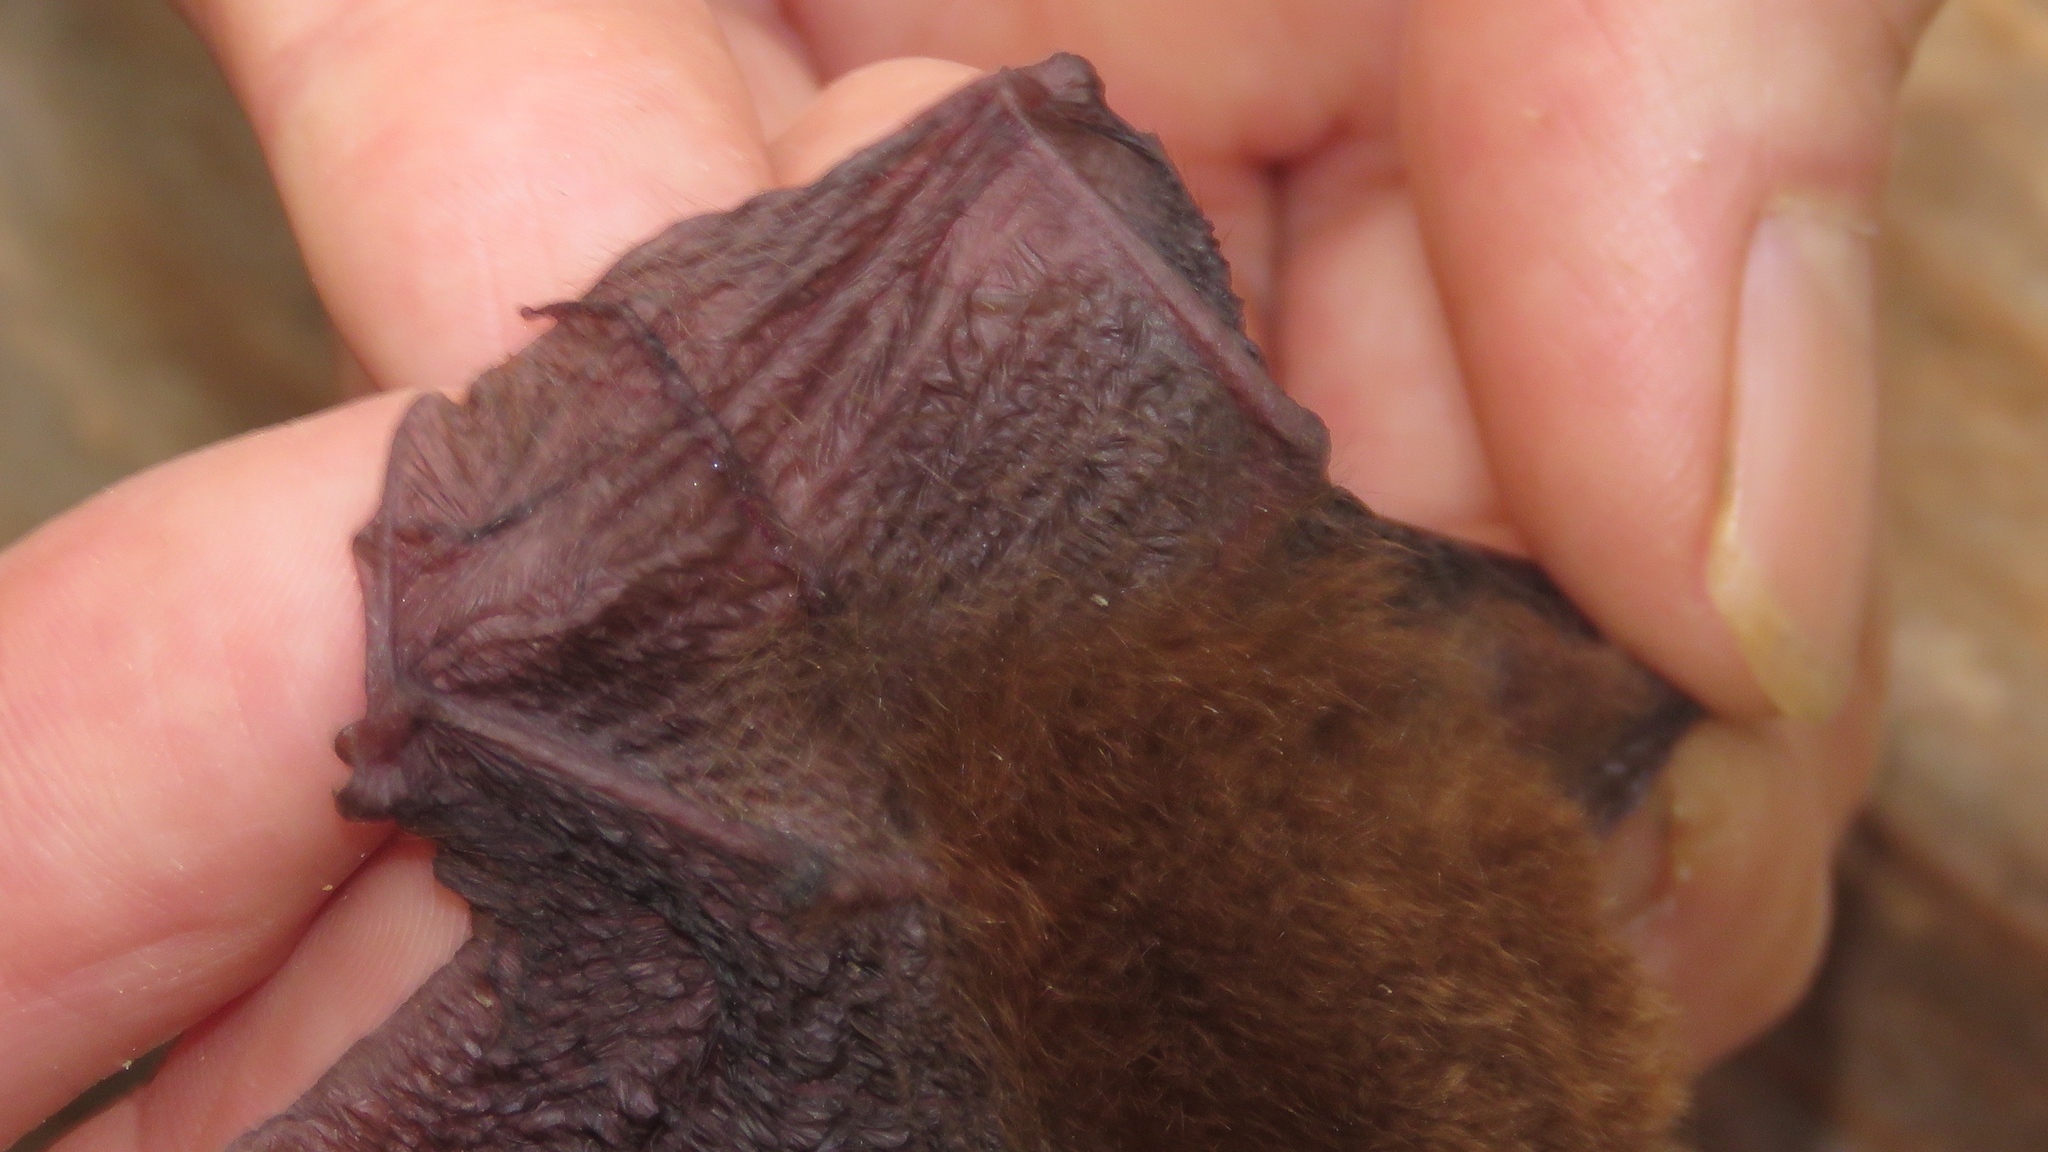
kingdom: Animalia
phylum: Chordata
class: Mammalia
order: Chiroptera
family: Thyropteridae
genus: Thyroptera
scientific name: Thyroptera discifera
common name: Peters's disk-winged bat
